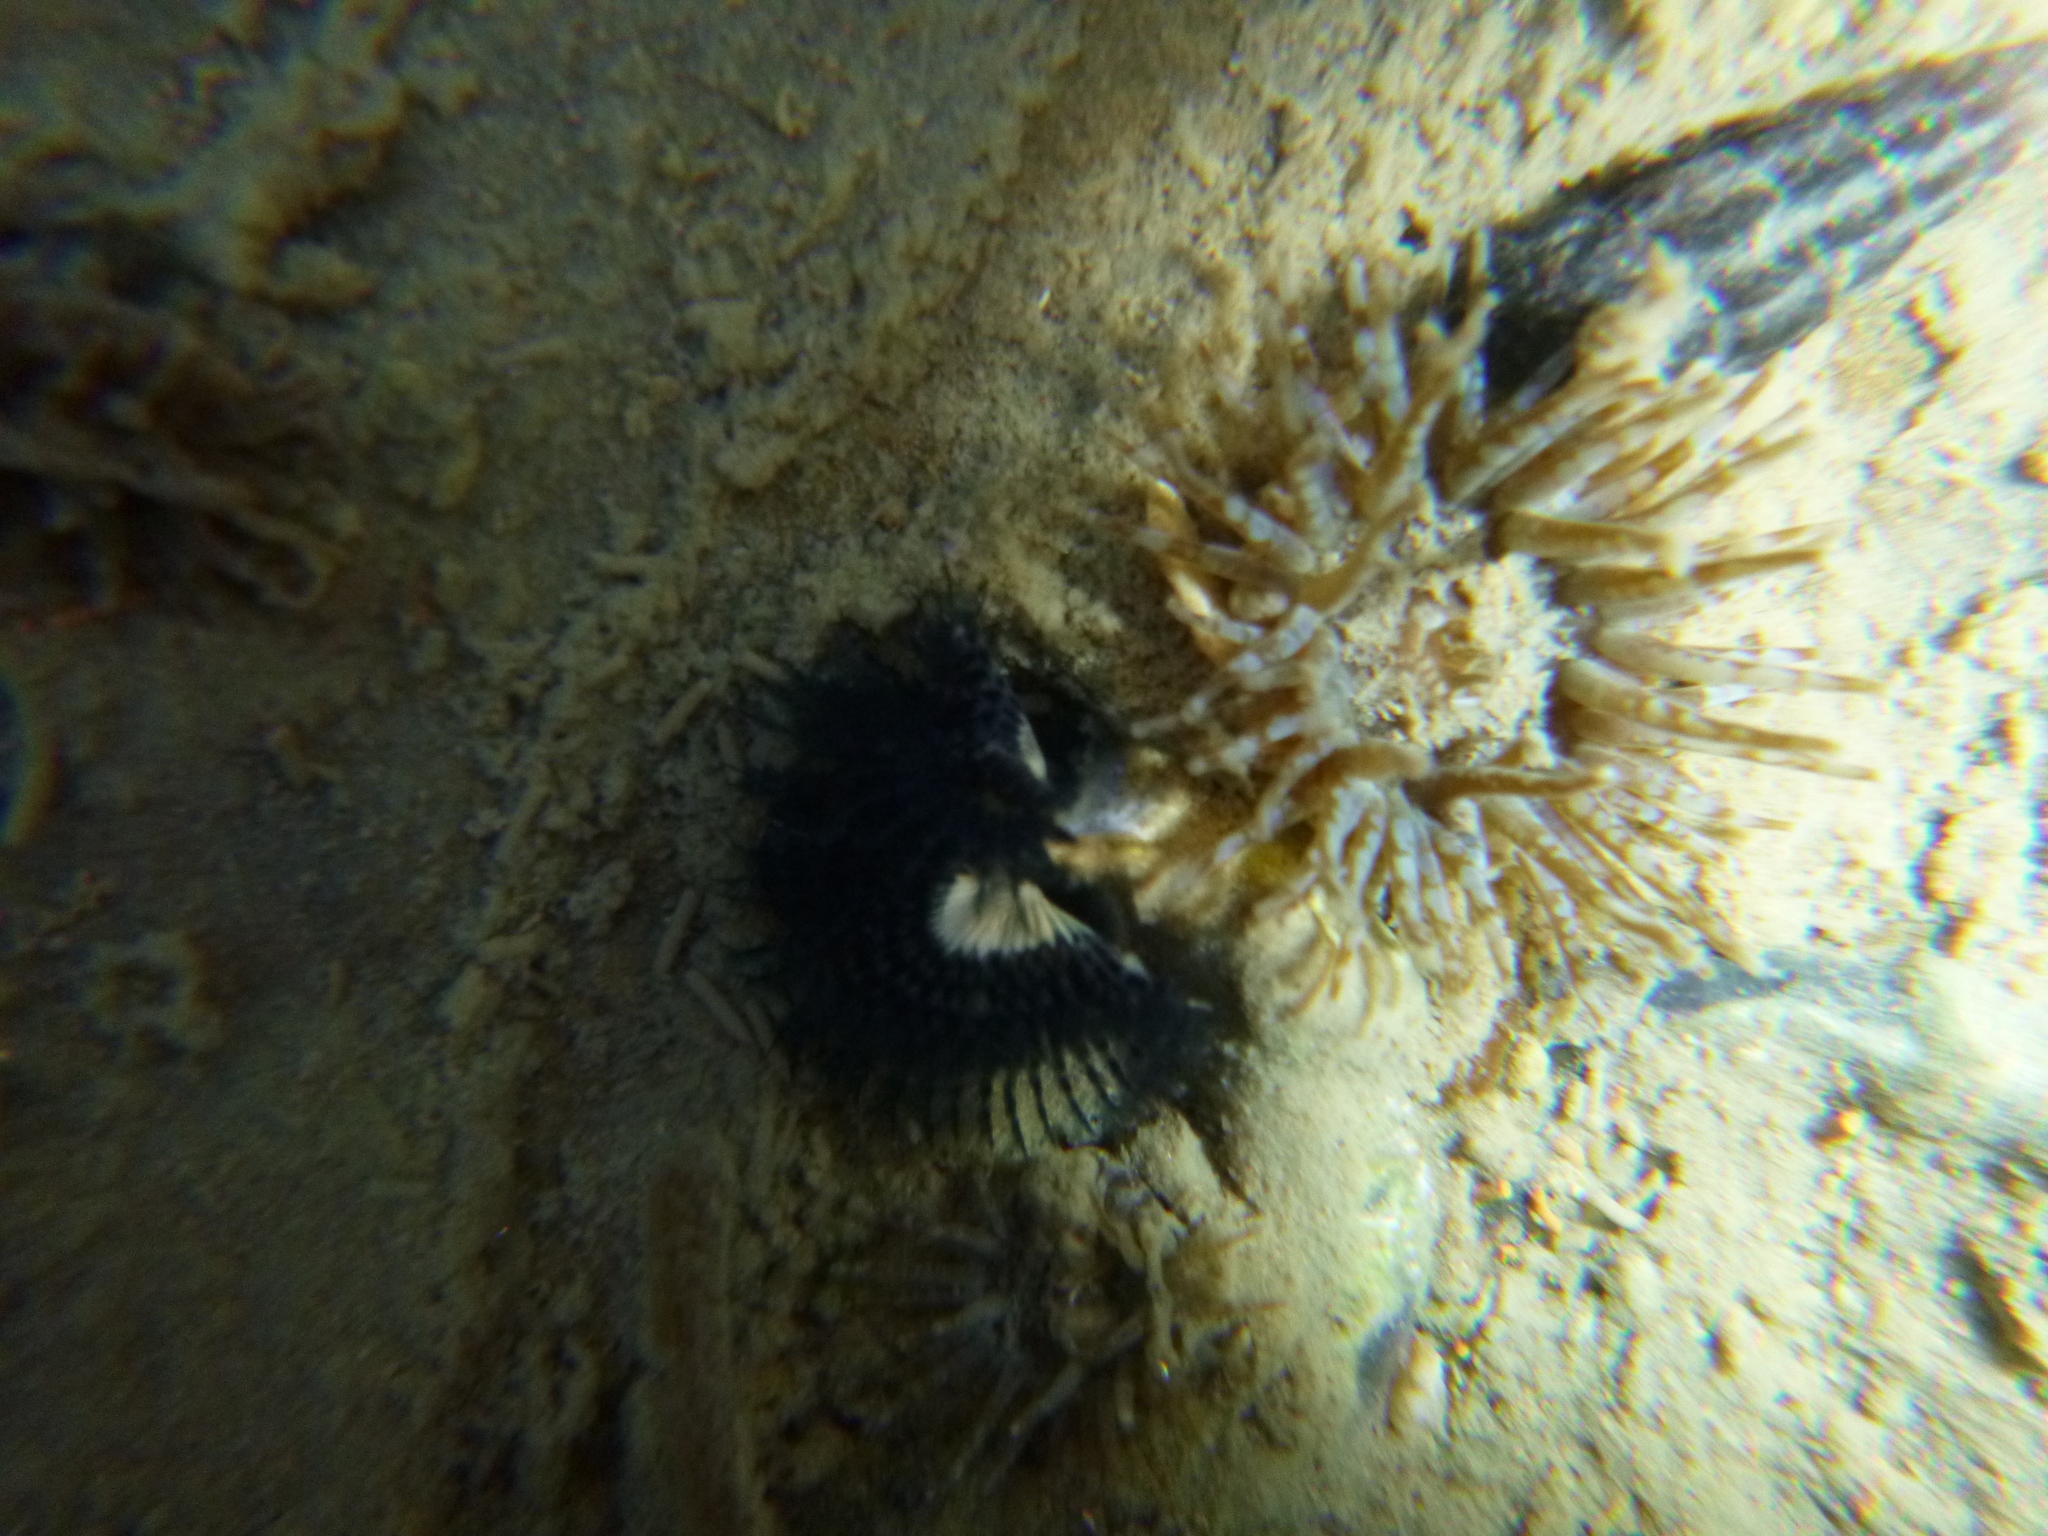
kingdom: Animalia
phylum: Mollusca
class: Gastropoda
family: Batillariidae
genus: Zeacumantus
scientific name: Zeacumantus subcarinatus
